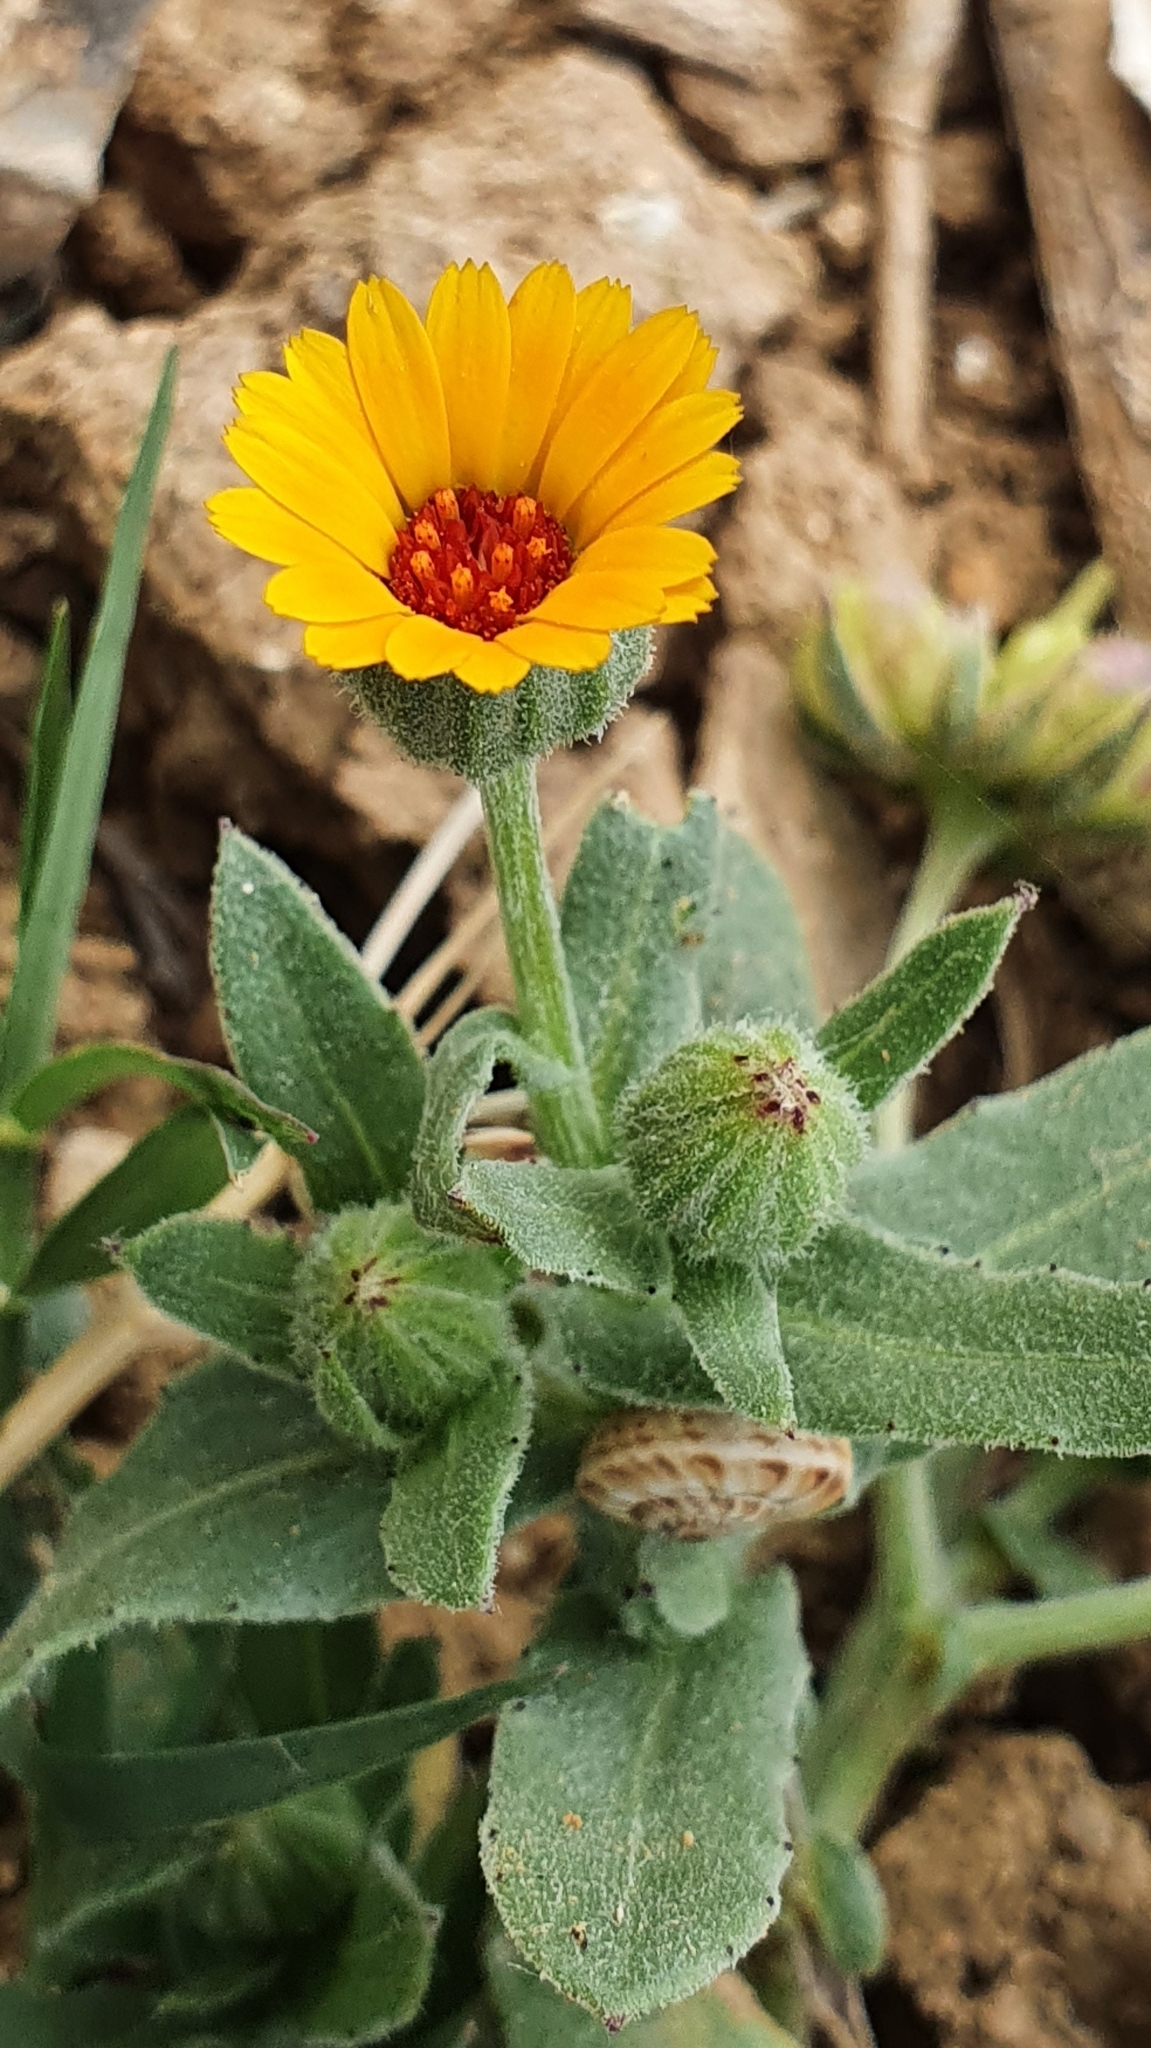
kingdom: Plantae
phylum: Tracheophyta
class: Magnoliopsida
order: Asterales
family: Asteraceae
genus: Calendula
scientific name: Calendula arvensis
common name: Field marigold
